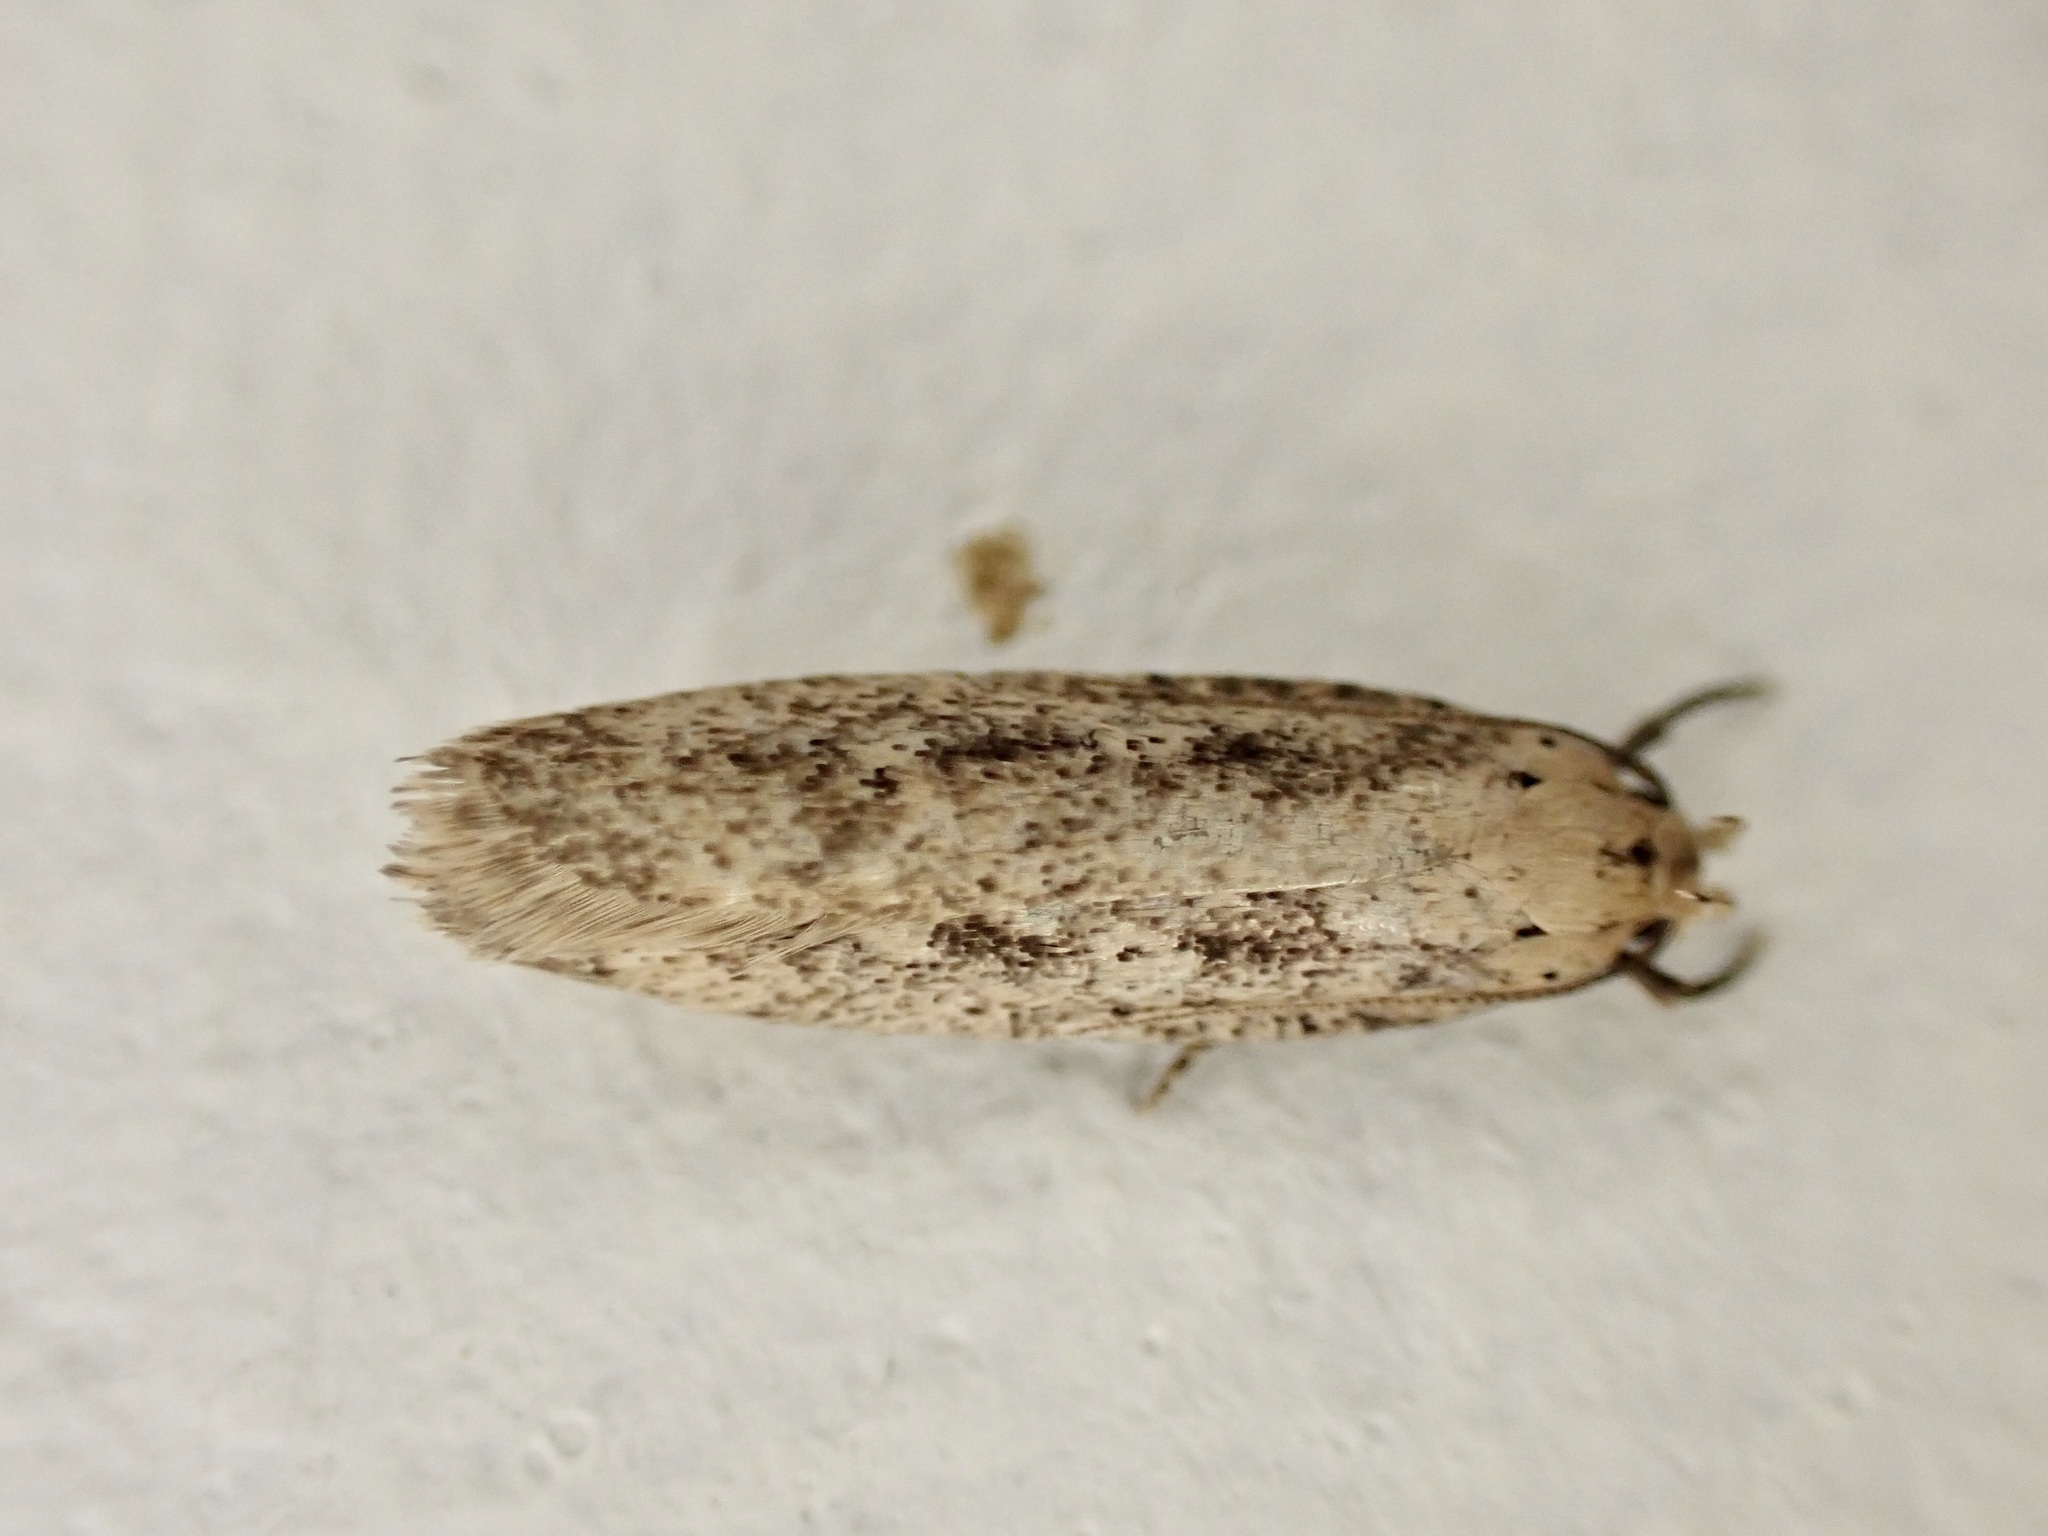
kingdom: Animalia
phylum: Arthropoda
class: Insecta
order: Lepidoptera
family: Gelechiidae
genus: Platyedra
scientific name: Platyedra subcinerea
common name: Moth
